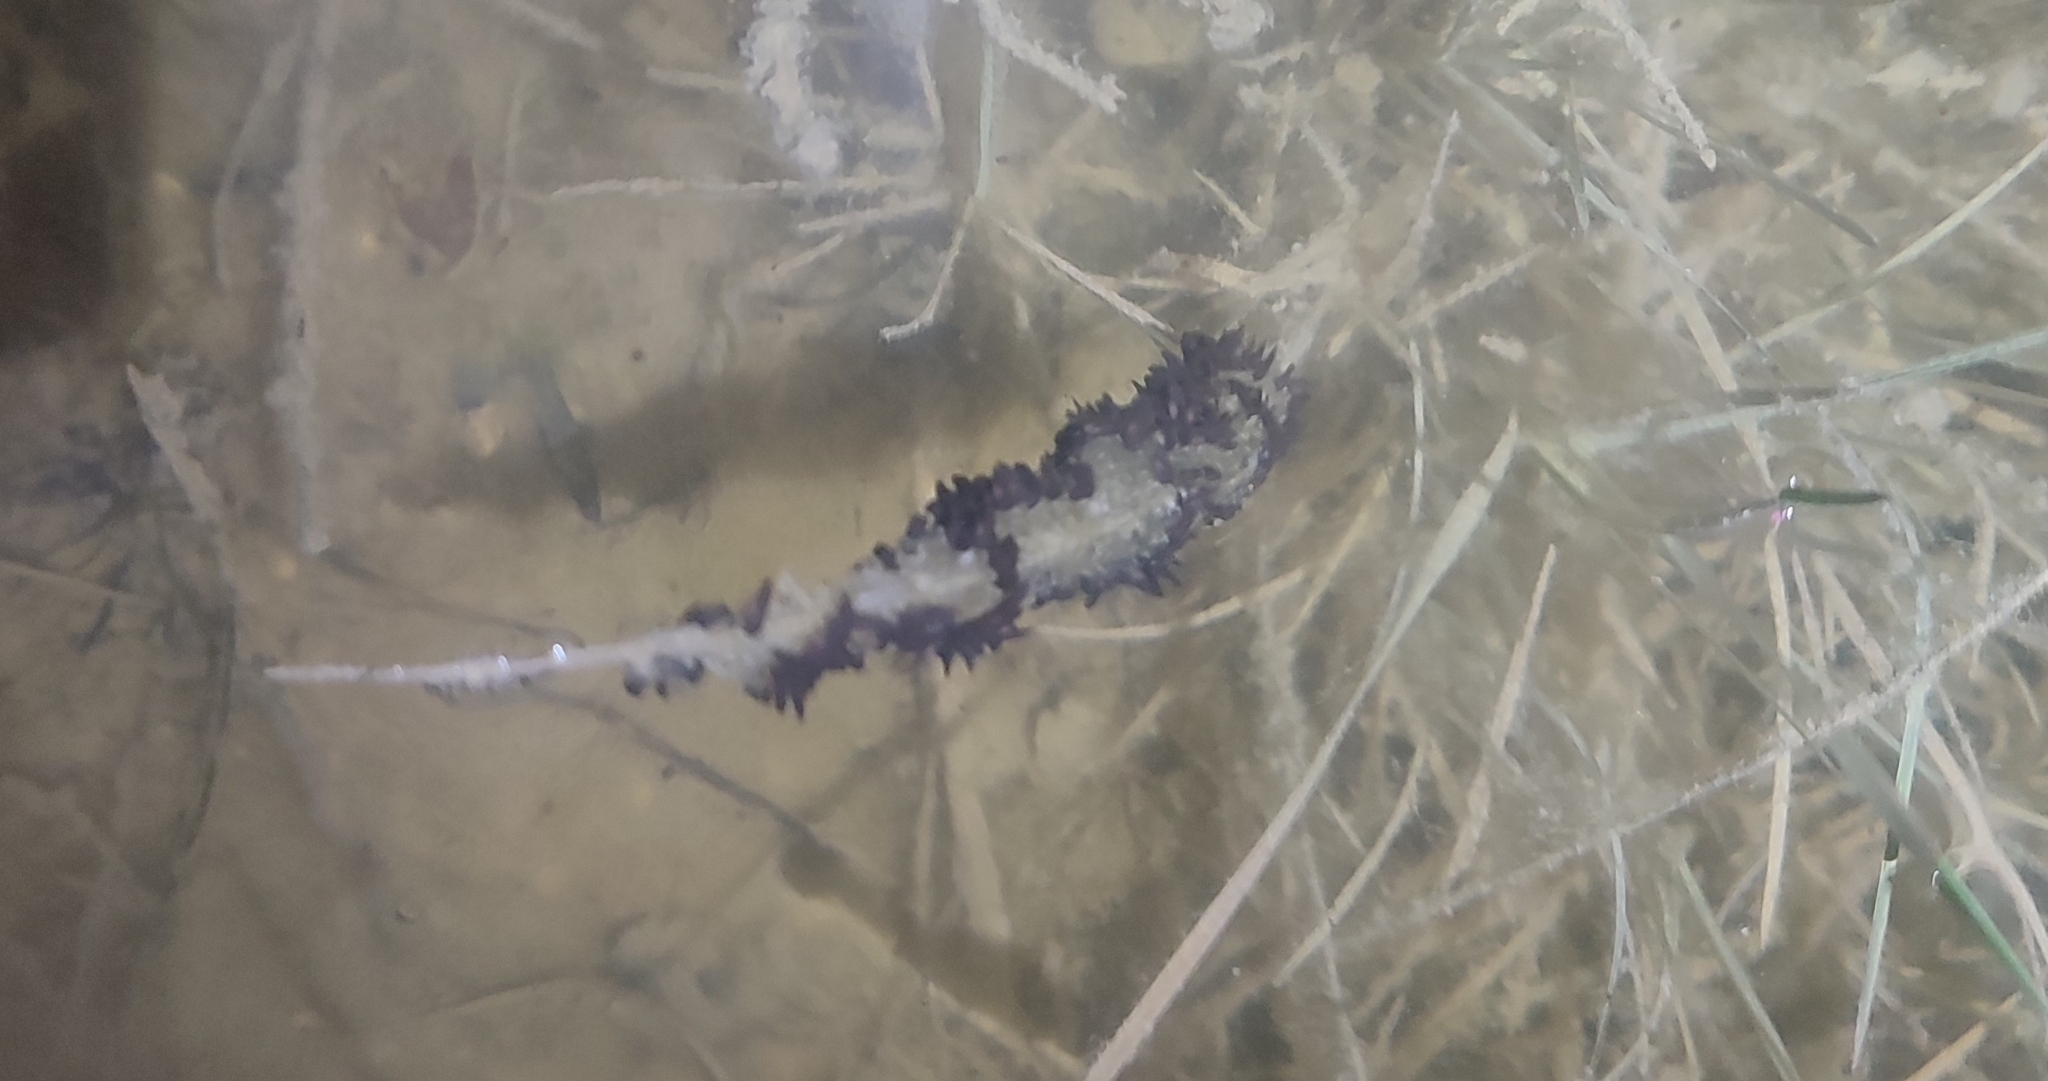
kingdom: Animalia
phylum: Chordata
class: Amphibia
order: Anura
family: Pelodytidae
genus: Pelodytes
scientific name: Pelodytes punctatus
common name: Parsley frog
